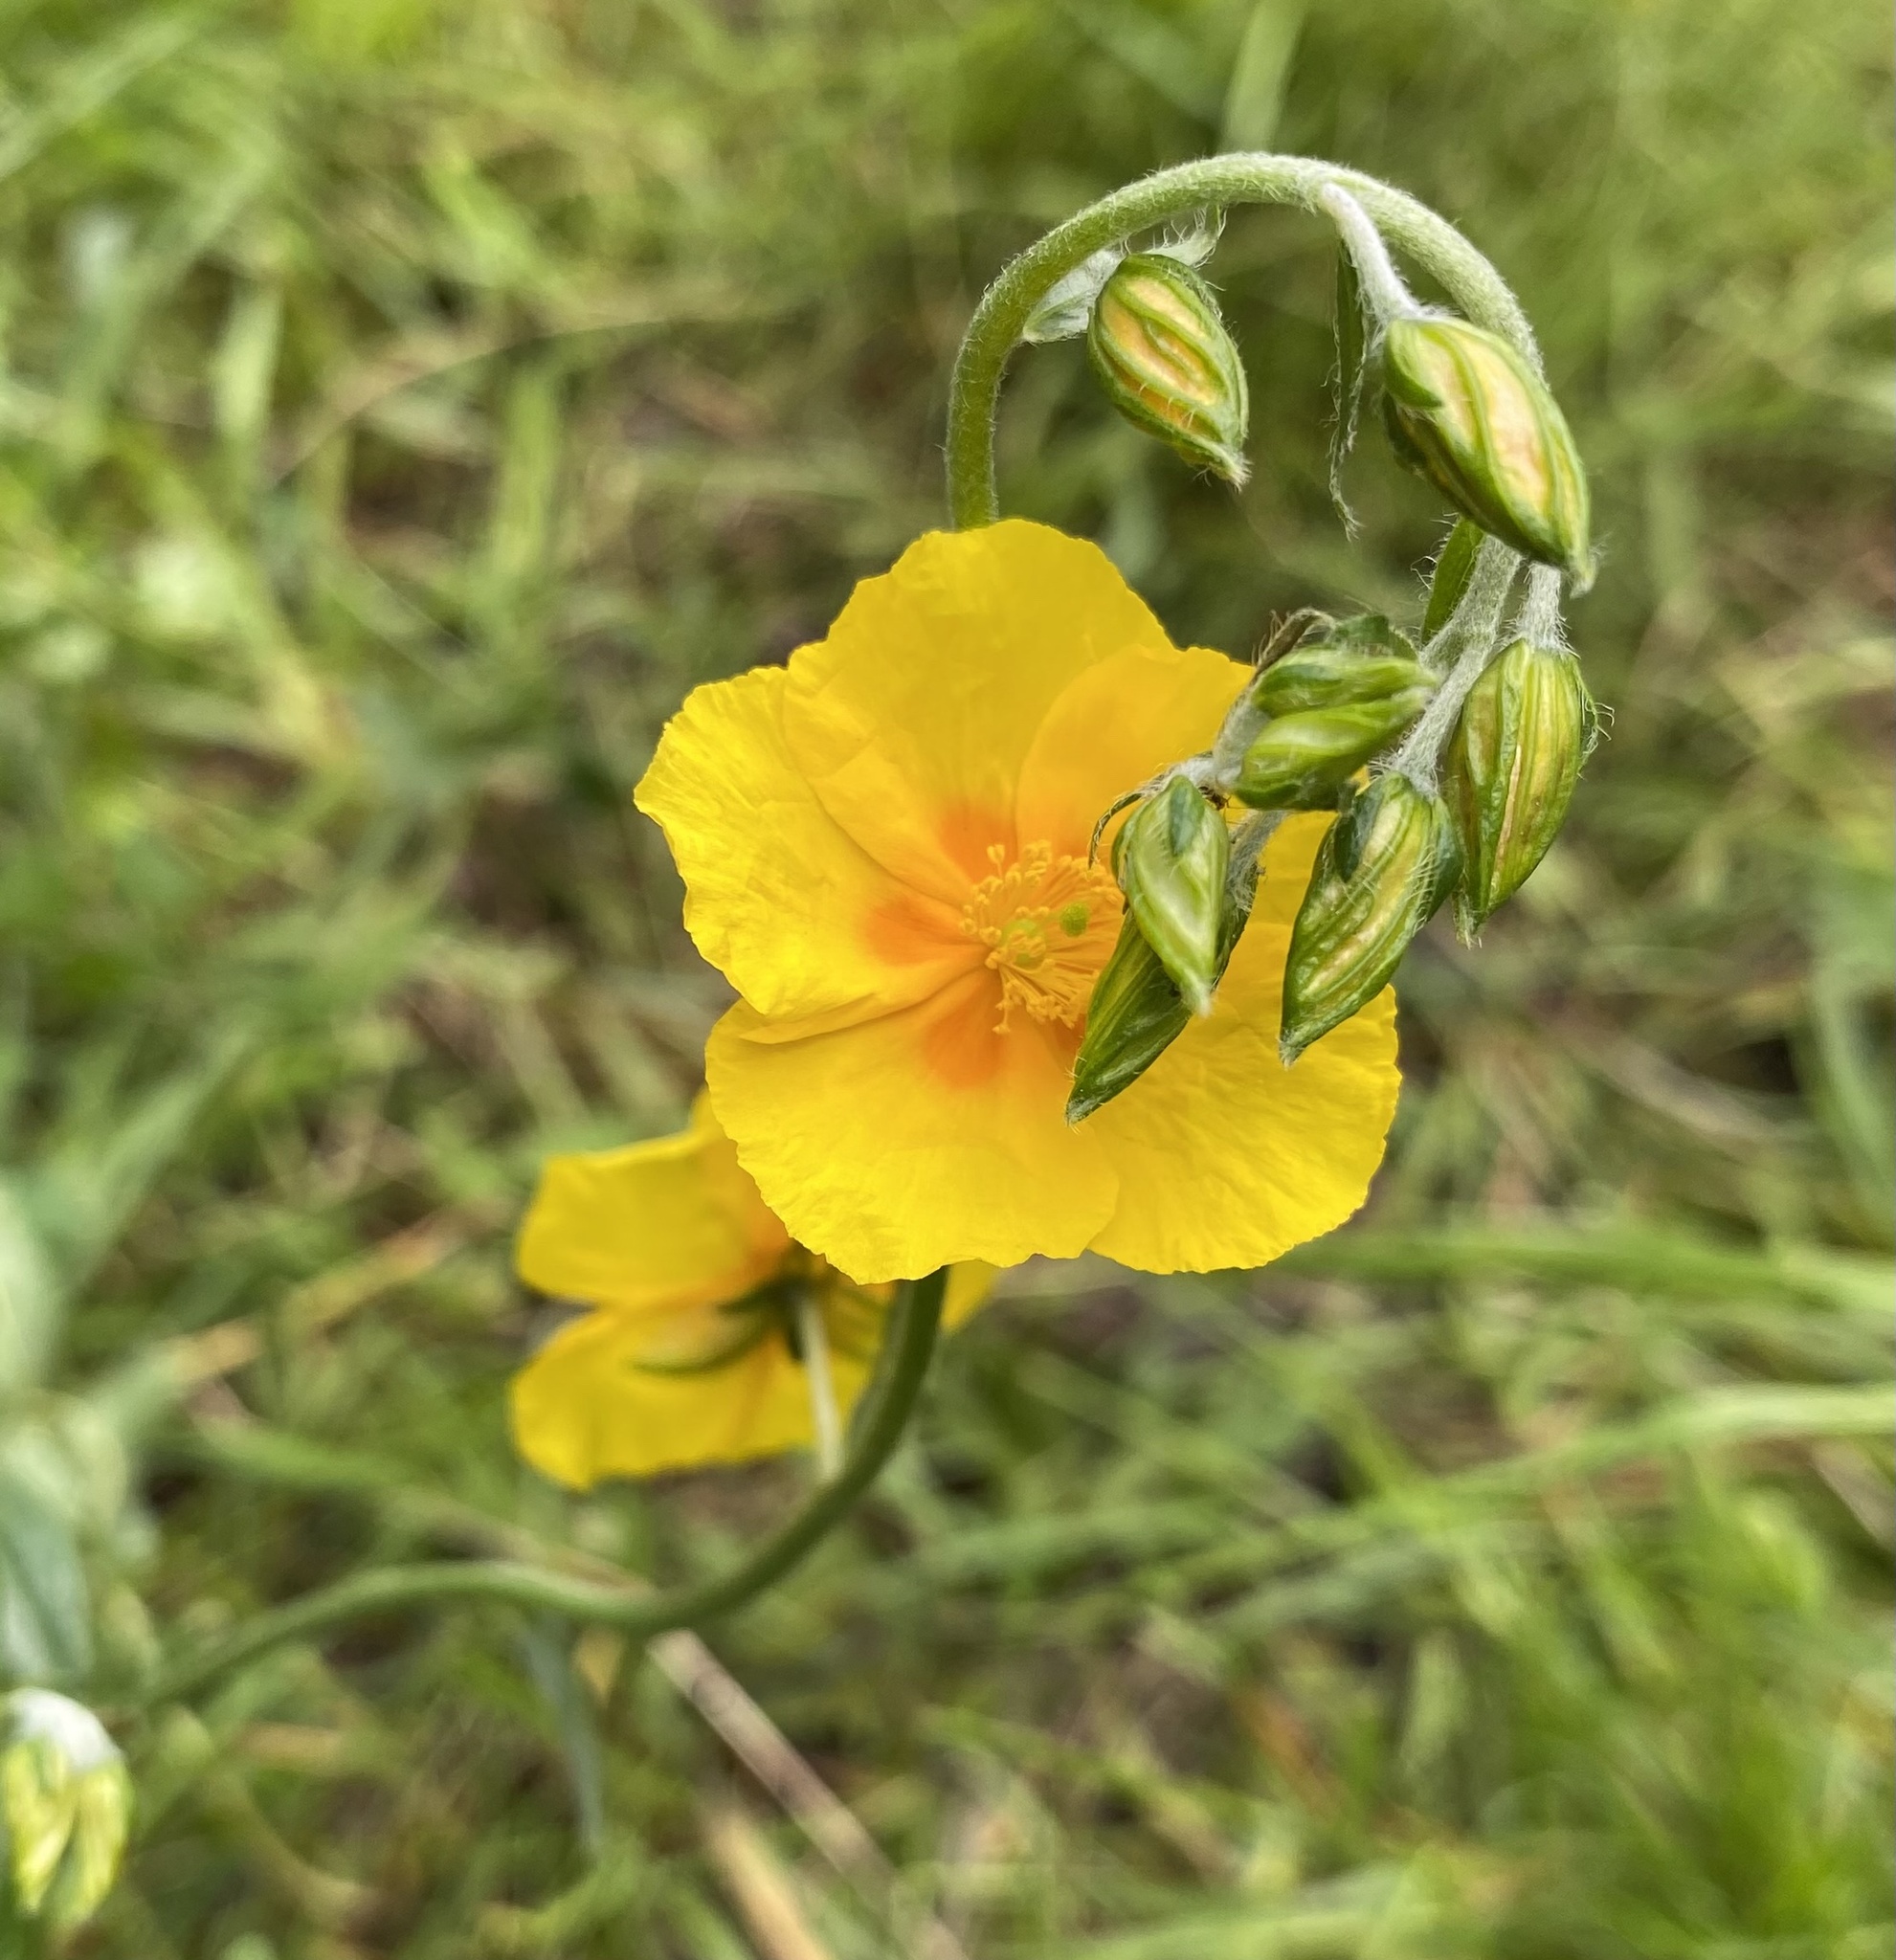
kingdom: Plantae
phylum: Tracheophyta
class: Magnoliopsida
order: Malvales
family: Cistaceae
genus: Helianthemum
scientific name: Helianthemum nummularium
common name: Common rock-rose
